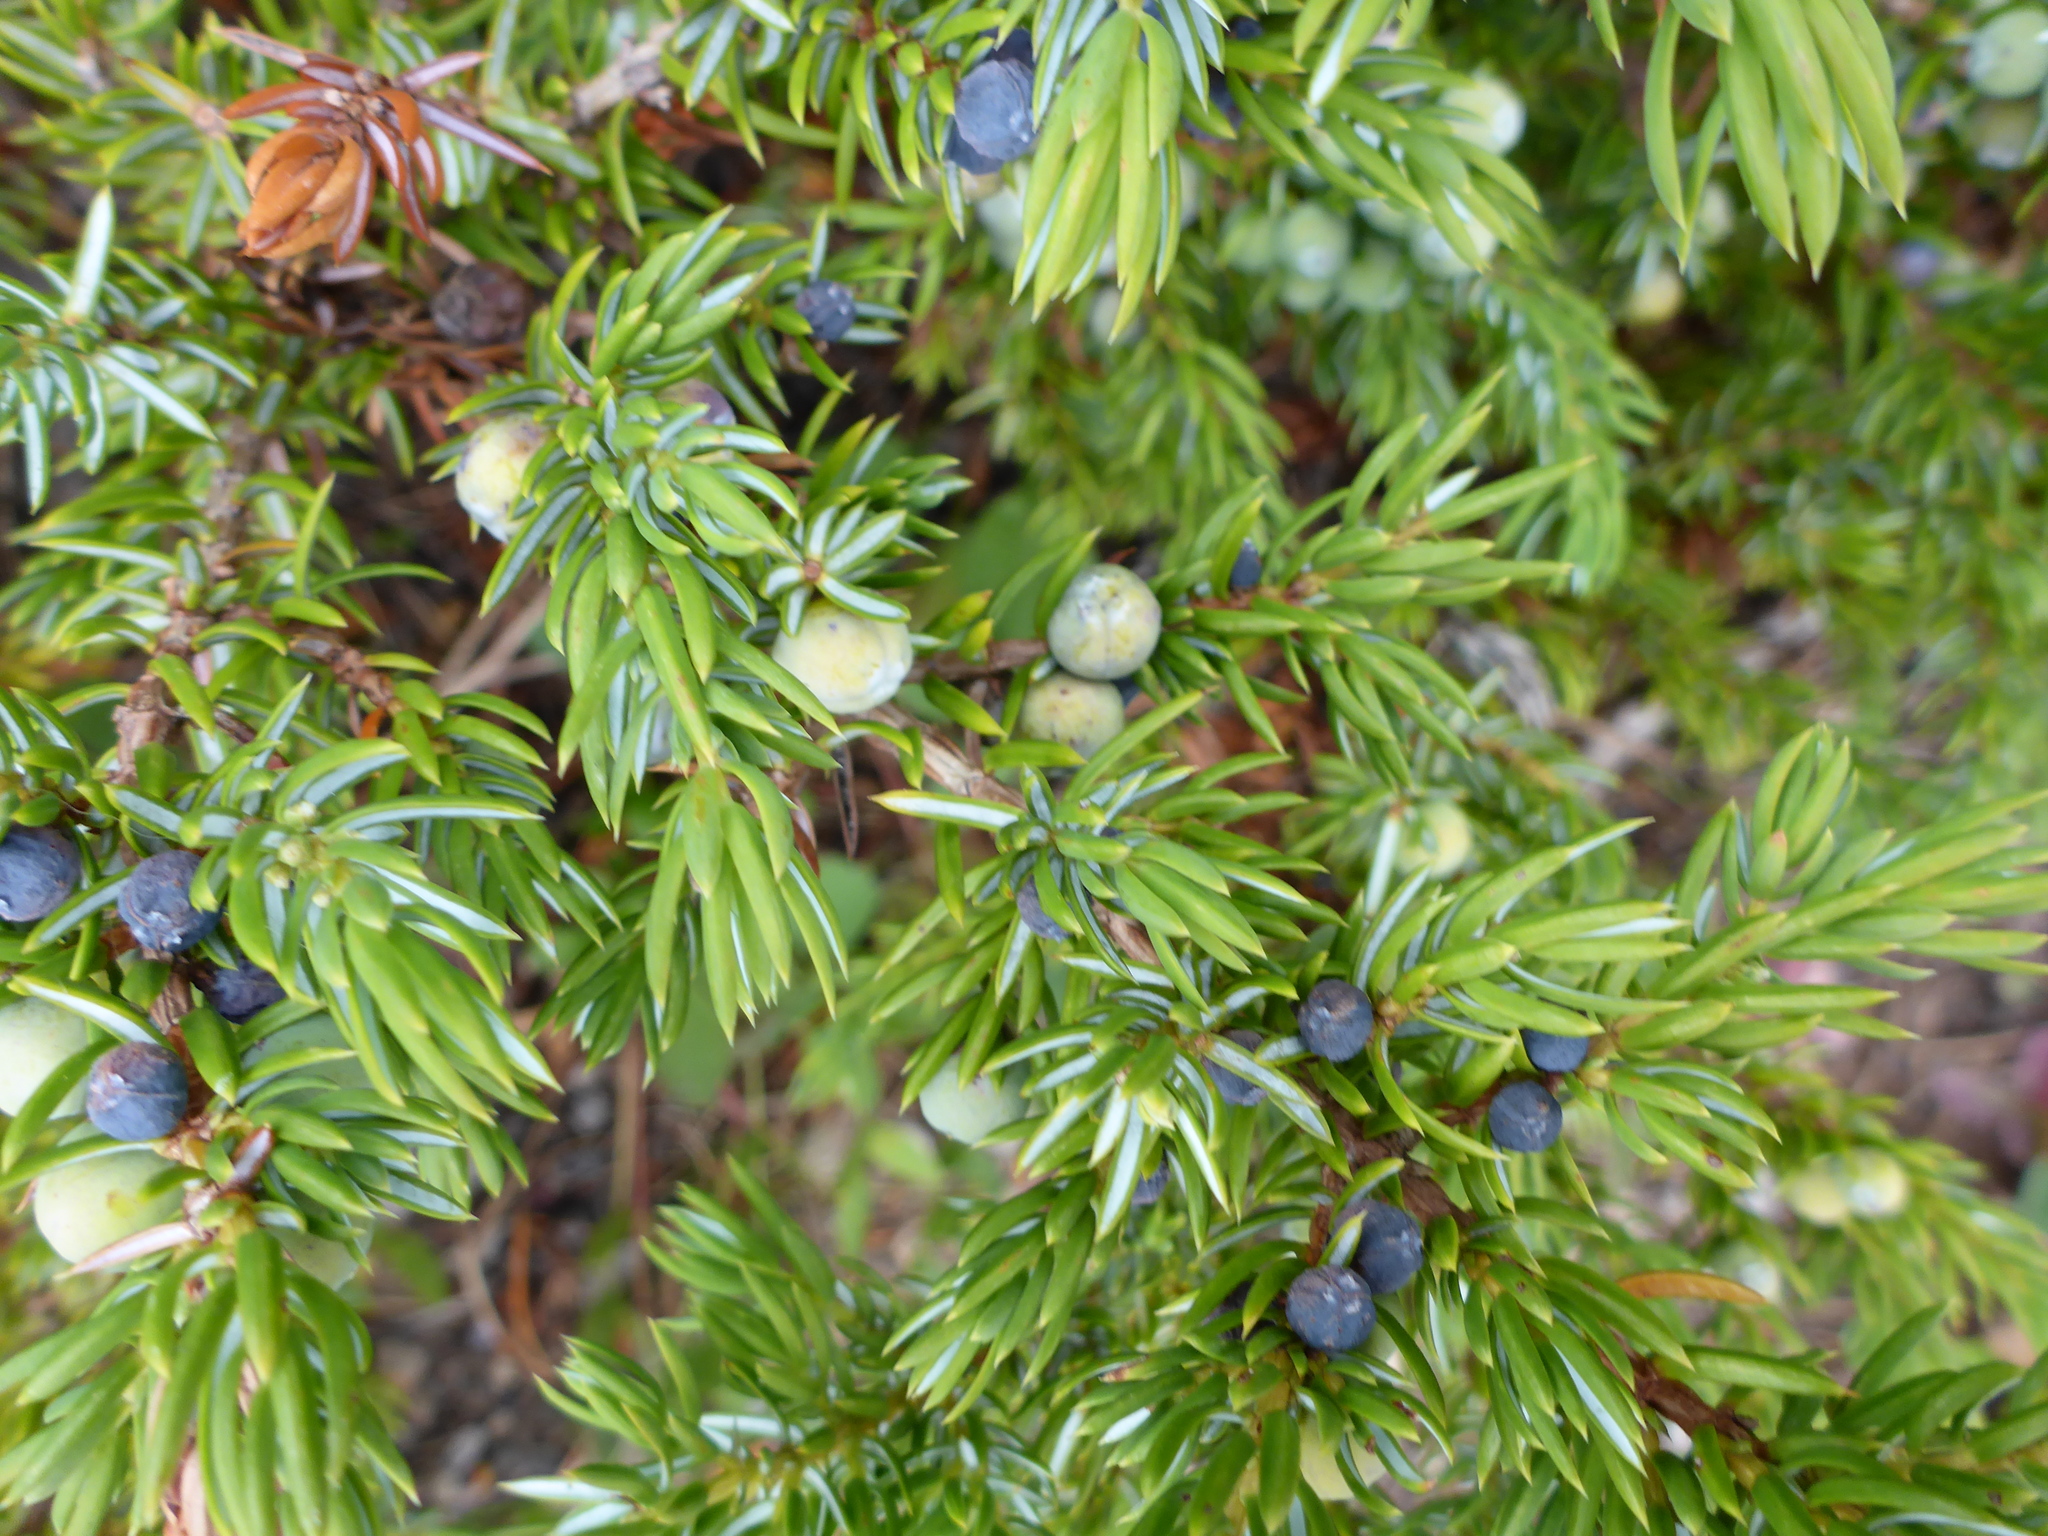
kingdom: Plantae
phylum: Tracheophyta
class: Pinopsida
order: Pinales
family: Cupressaceae
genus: Juniperus
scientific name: Juniperus communis
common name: Common juniper
